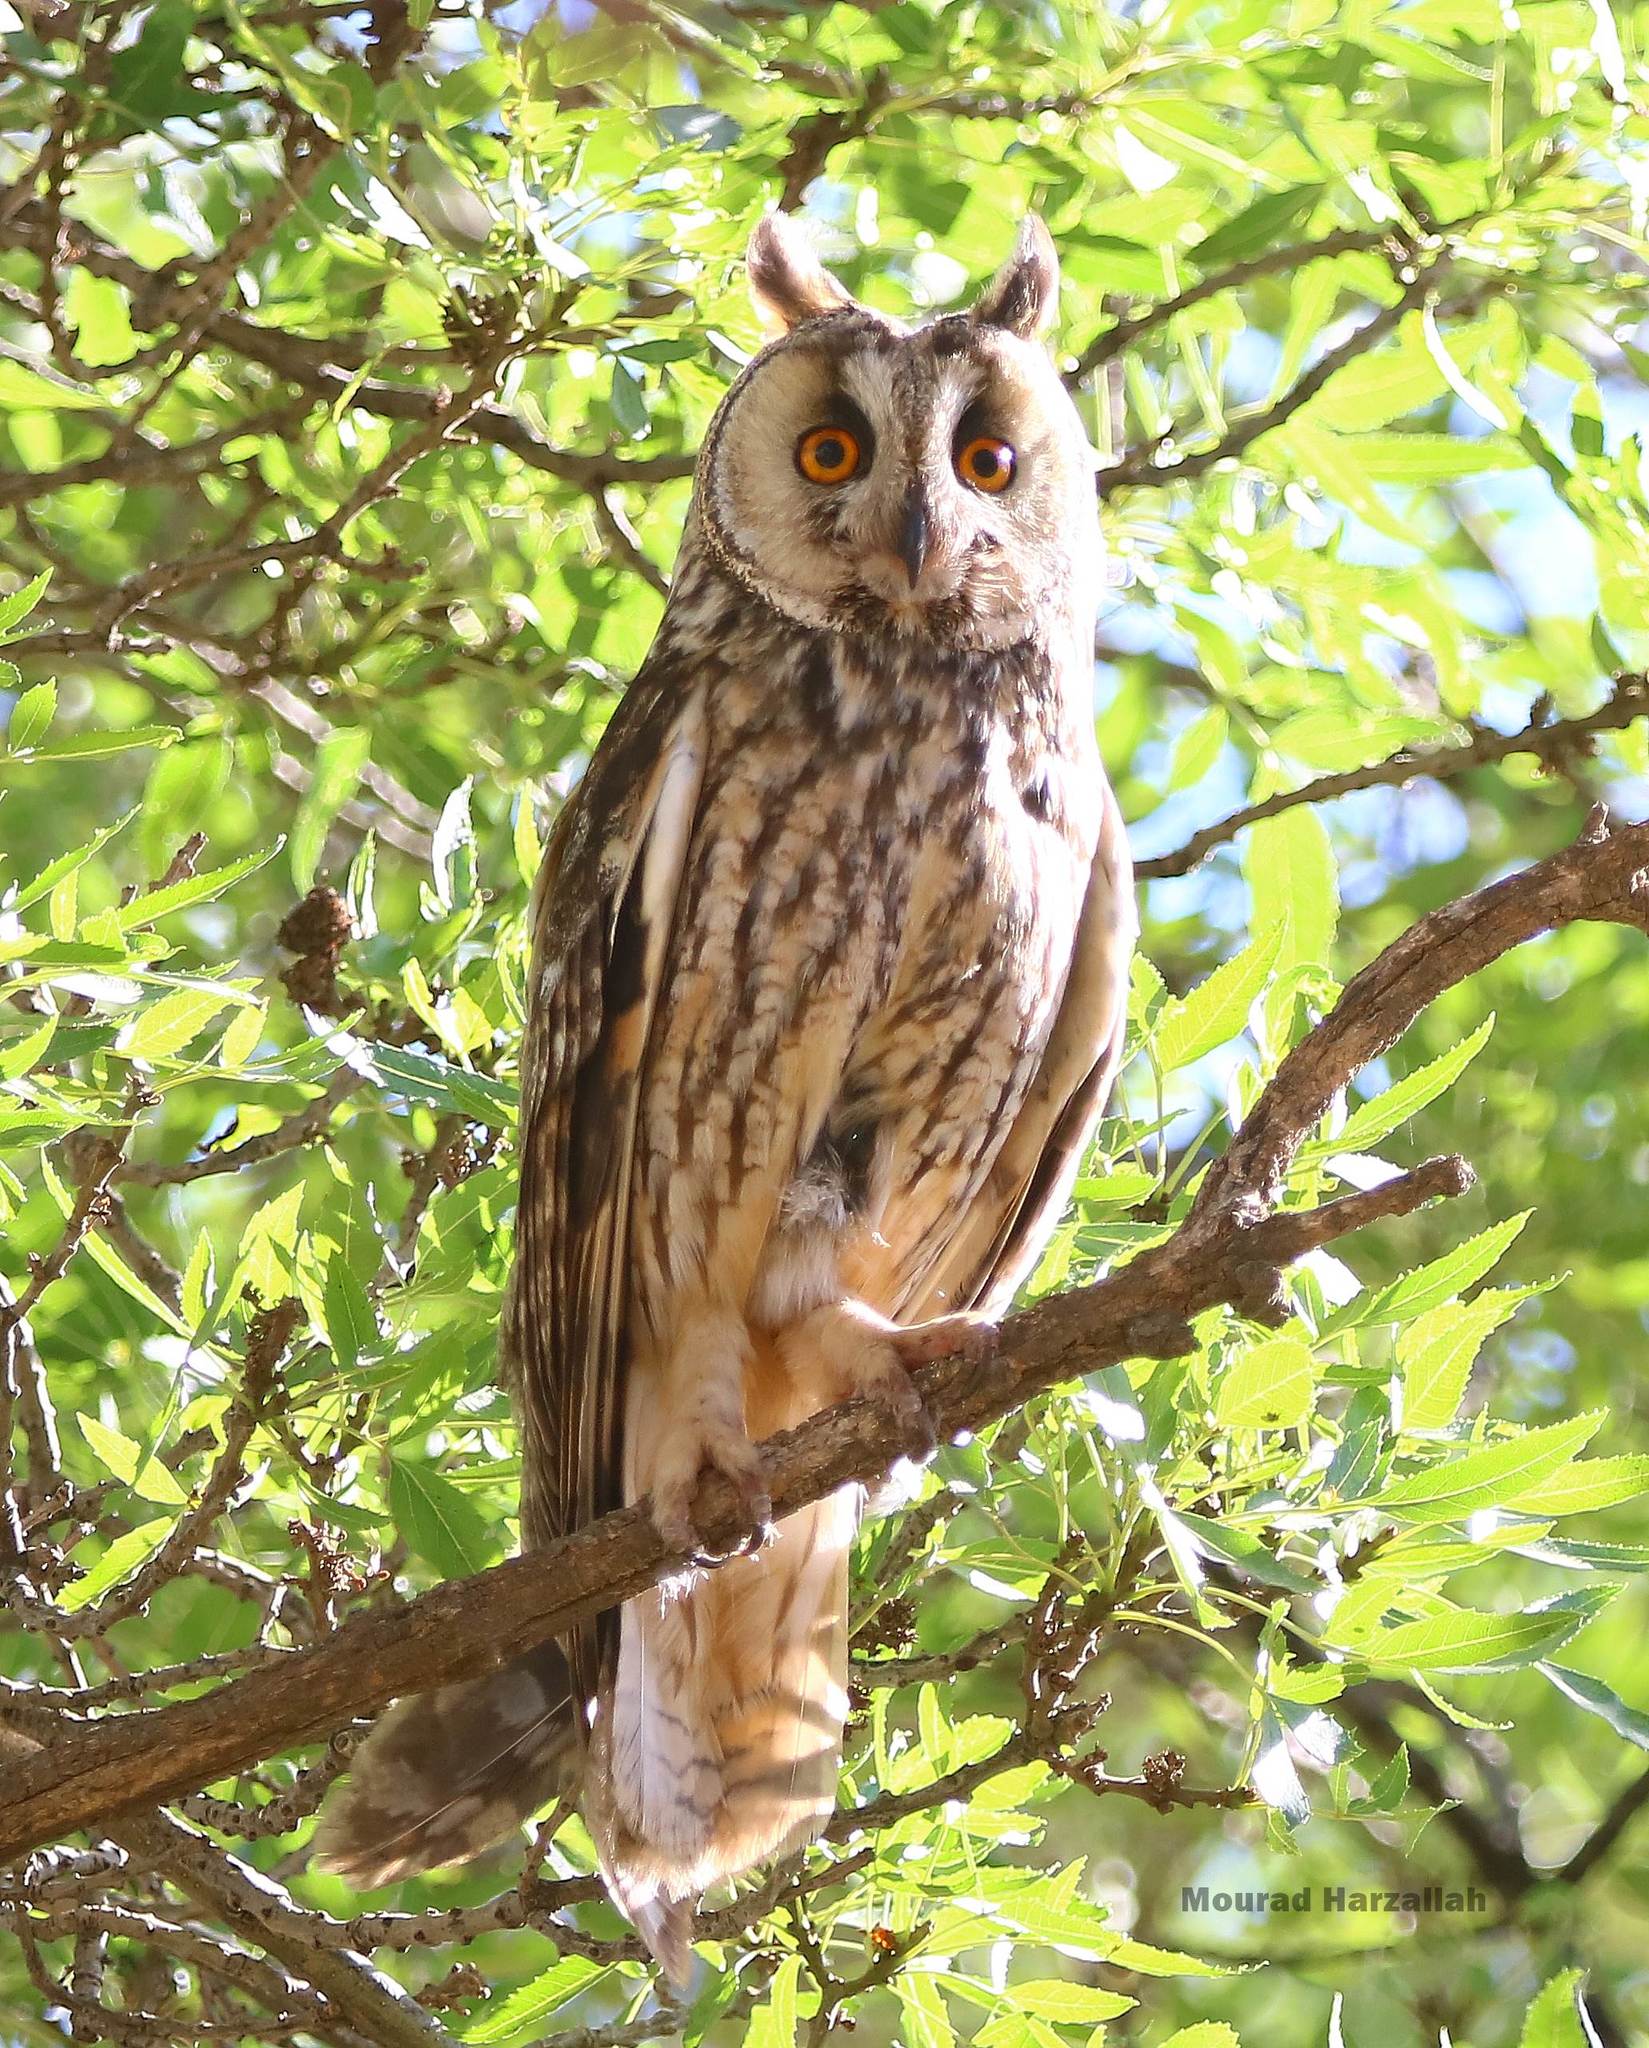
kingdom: Animalia
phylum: Chordata
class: Aves
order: Strigiformes
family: Strigidae
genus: Asio
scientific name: Asio otus
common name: Long-eared owl
